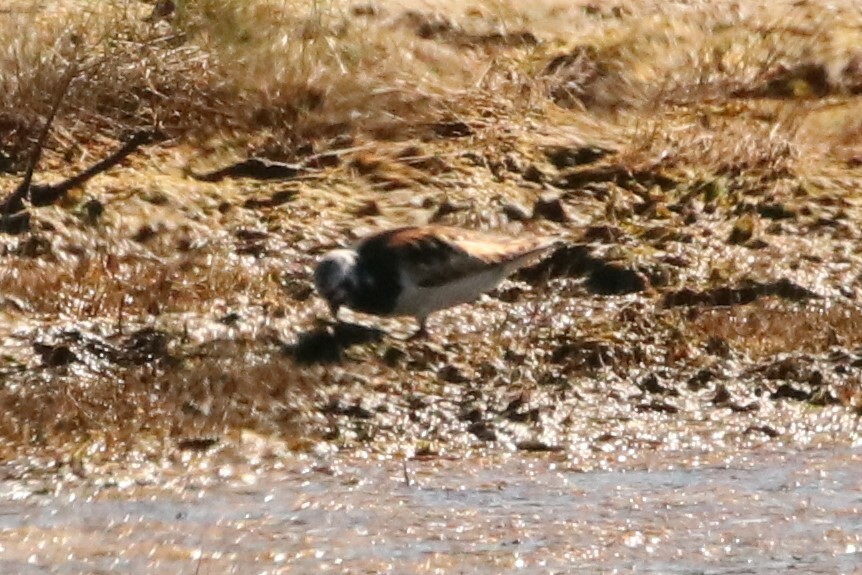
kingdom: Animalia
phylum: Chordata
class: Aves
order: Charadriiformes
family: Scolopacidae
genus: Arenaria
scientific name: Arenaria interpres
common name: Ruddy turnstone
